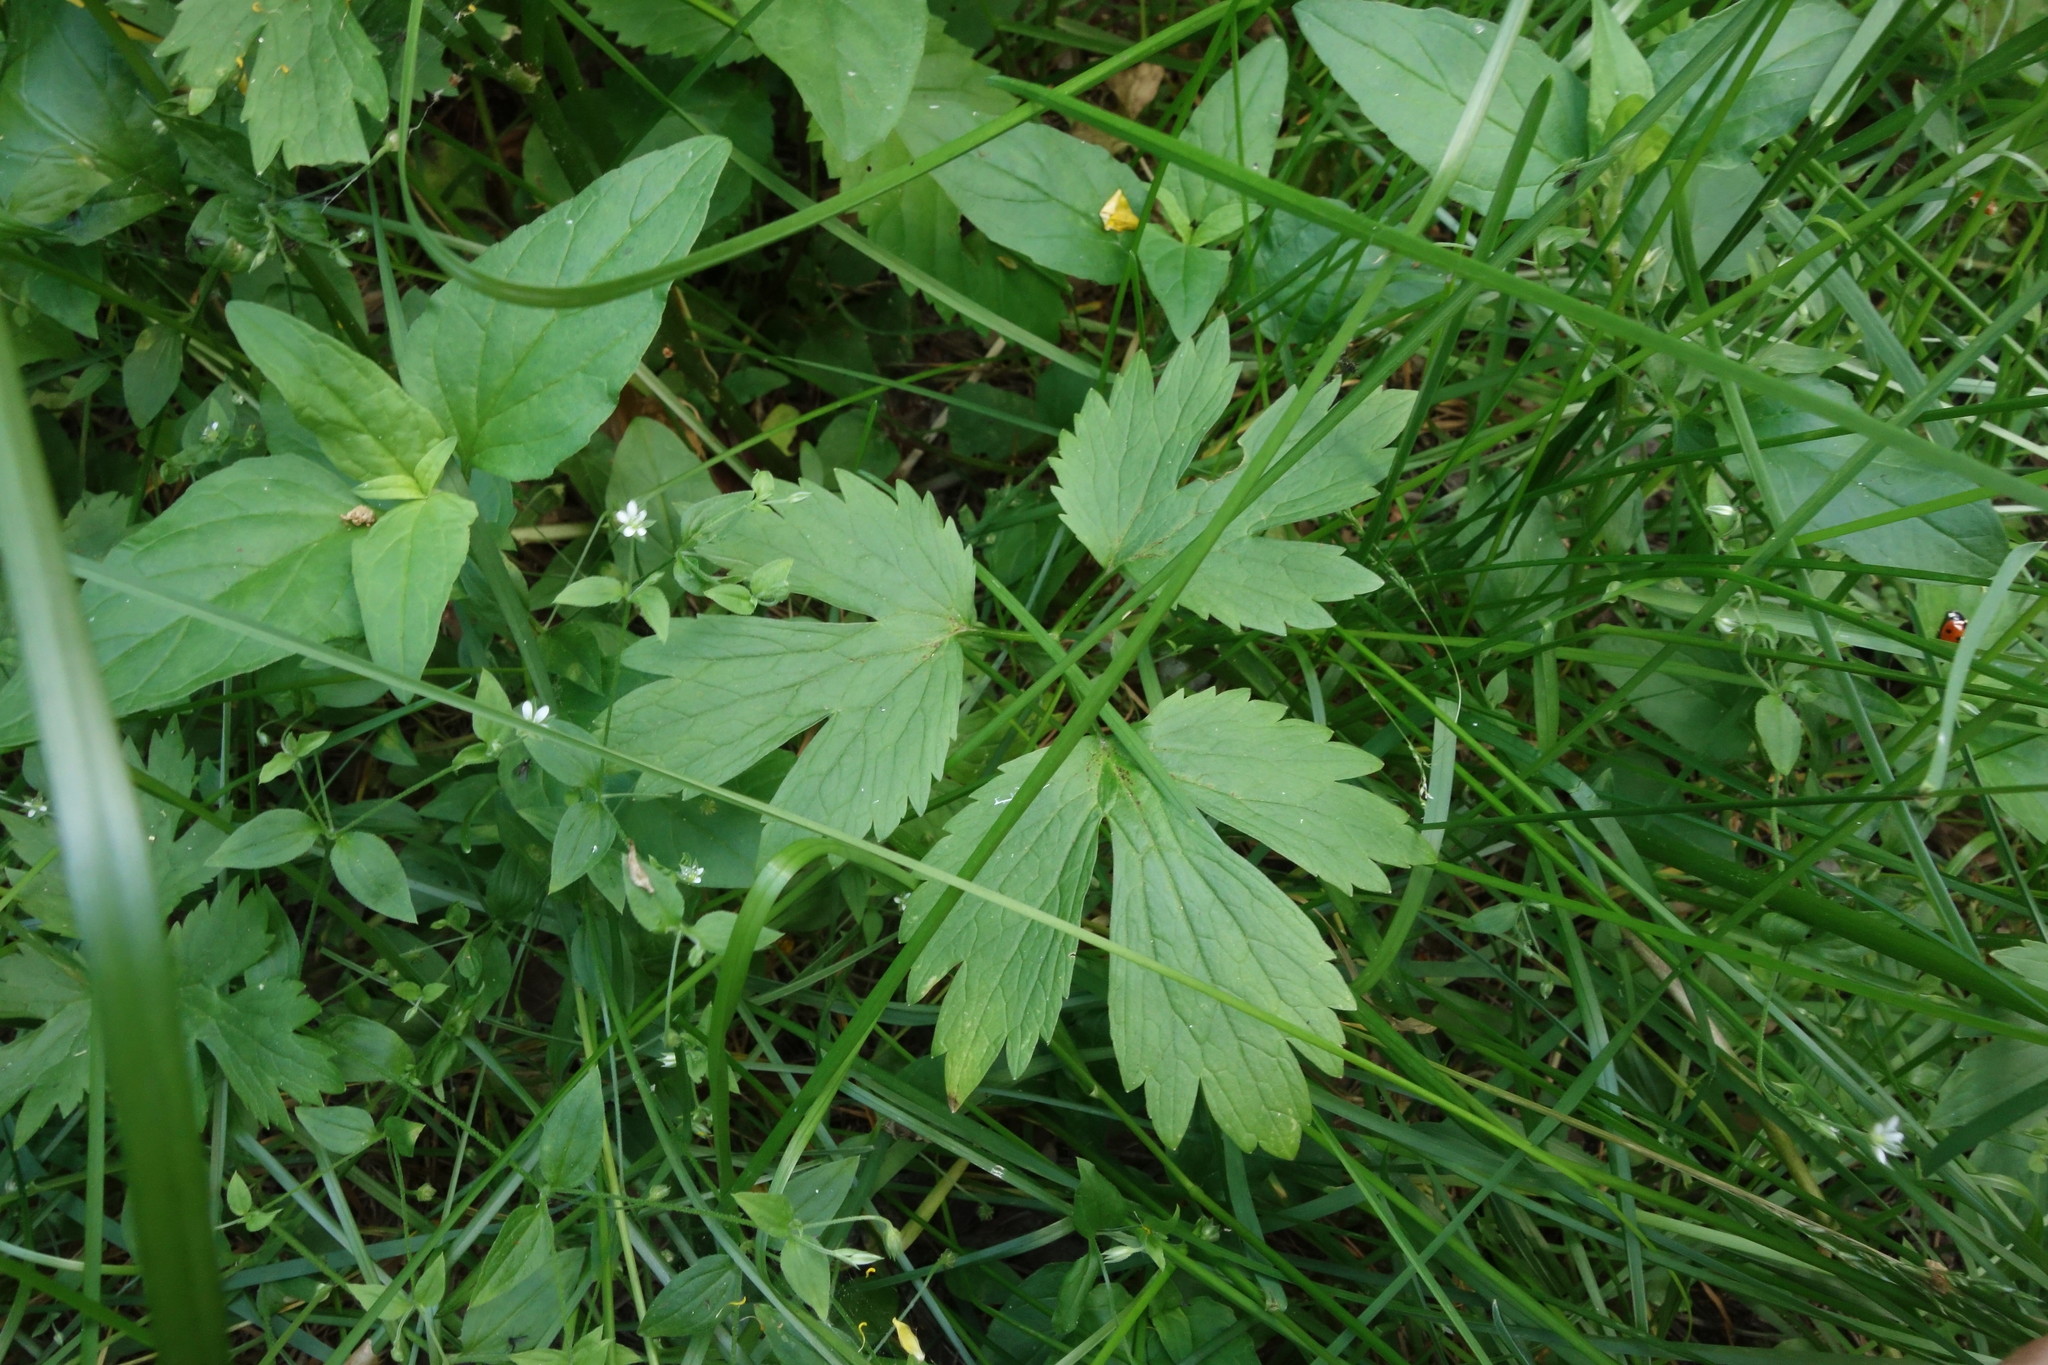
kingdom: Plantae
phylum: Tracheophyta
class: Magnoliopsida
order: Ranunculales
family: Ranunculaceae
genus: Ranunculus
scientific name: Ranunculus repens
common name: Creeping buttercup
